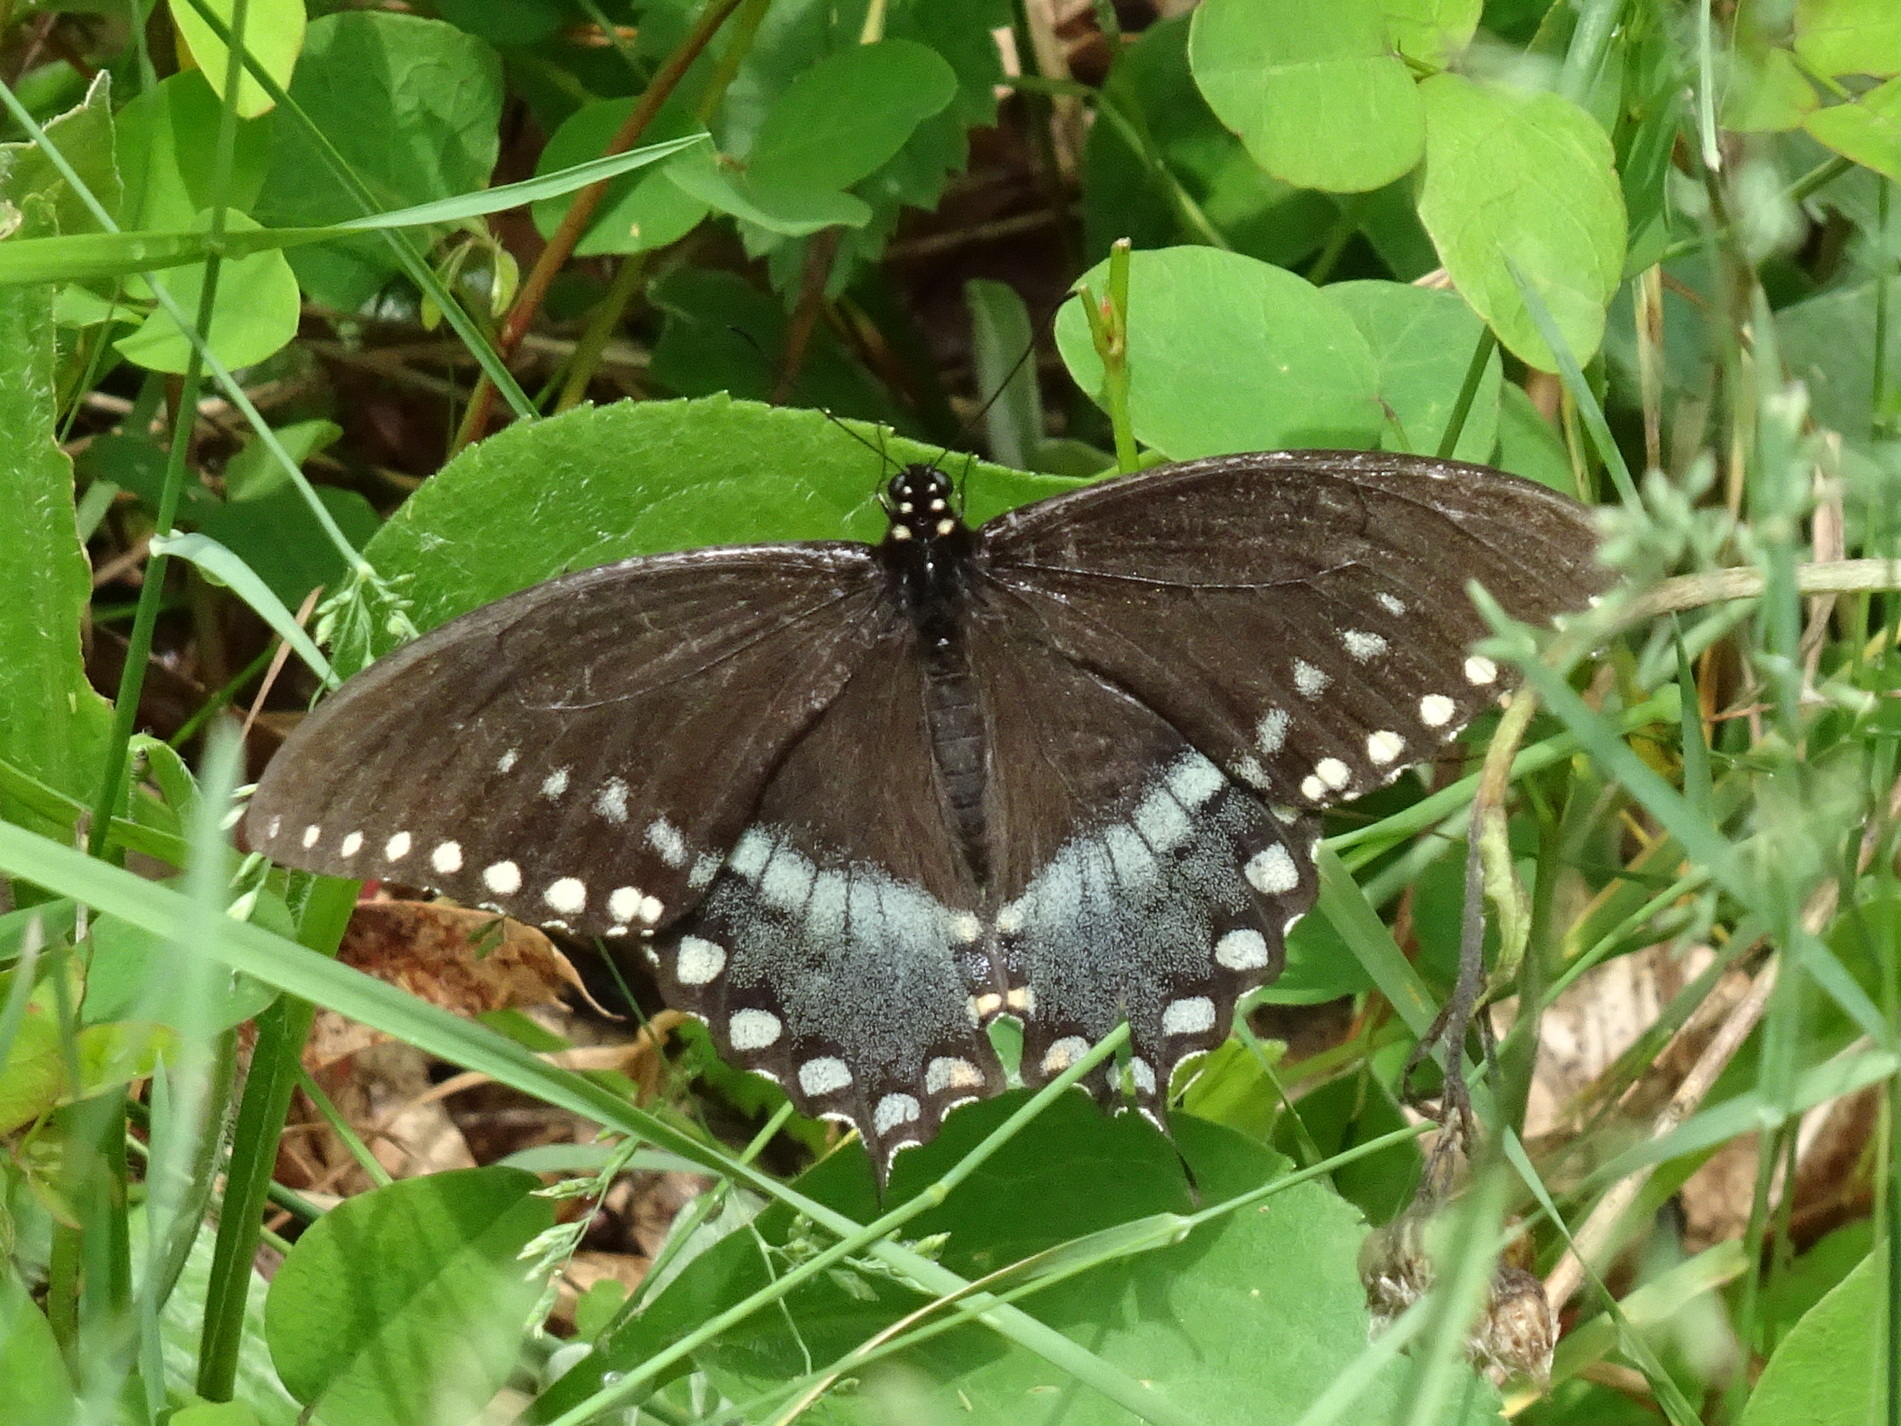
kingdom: Animalia
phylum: Arthropoda
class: Insecta
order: Lepidoptera
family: Papilionidae
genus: Papilio
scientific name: Papilio troilus
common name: Spicebush swallowtail
